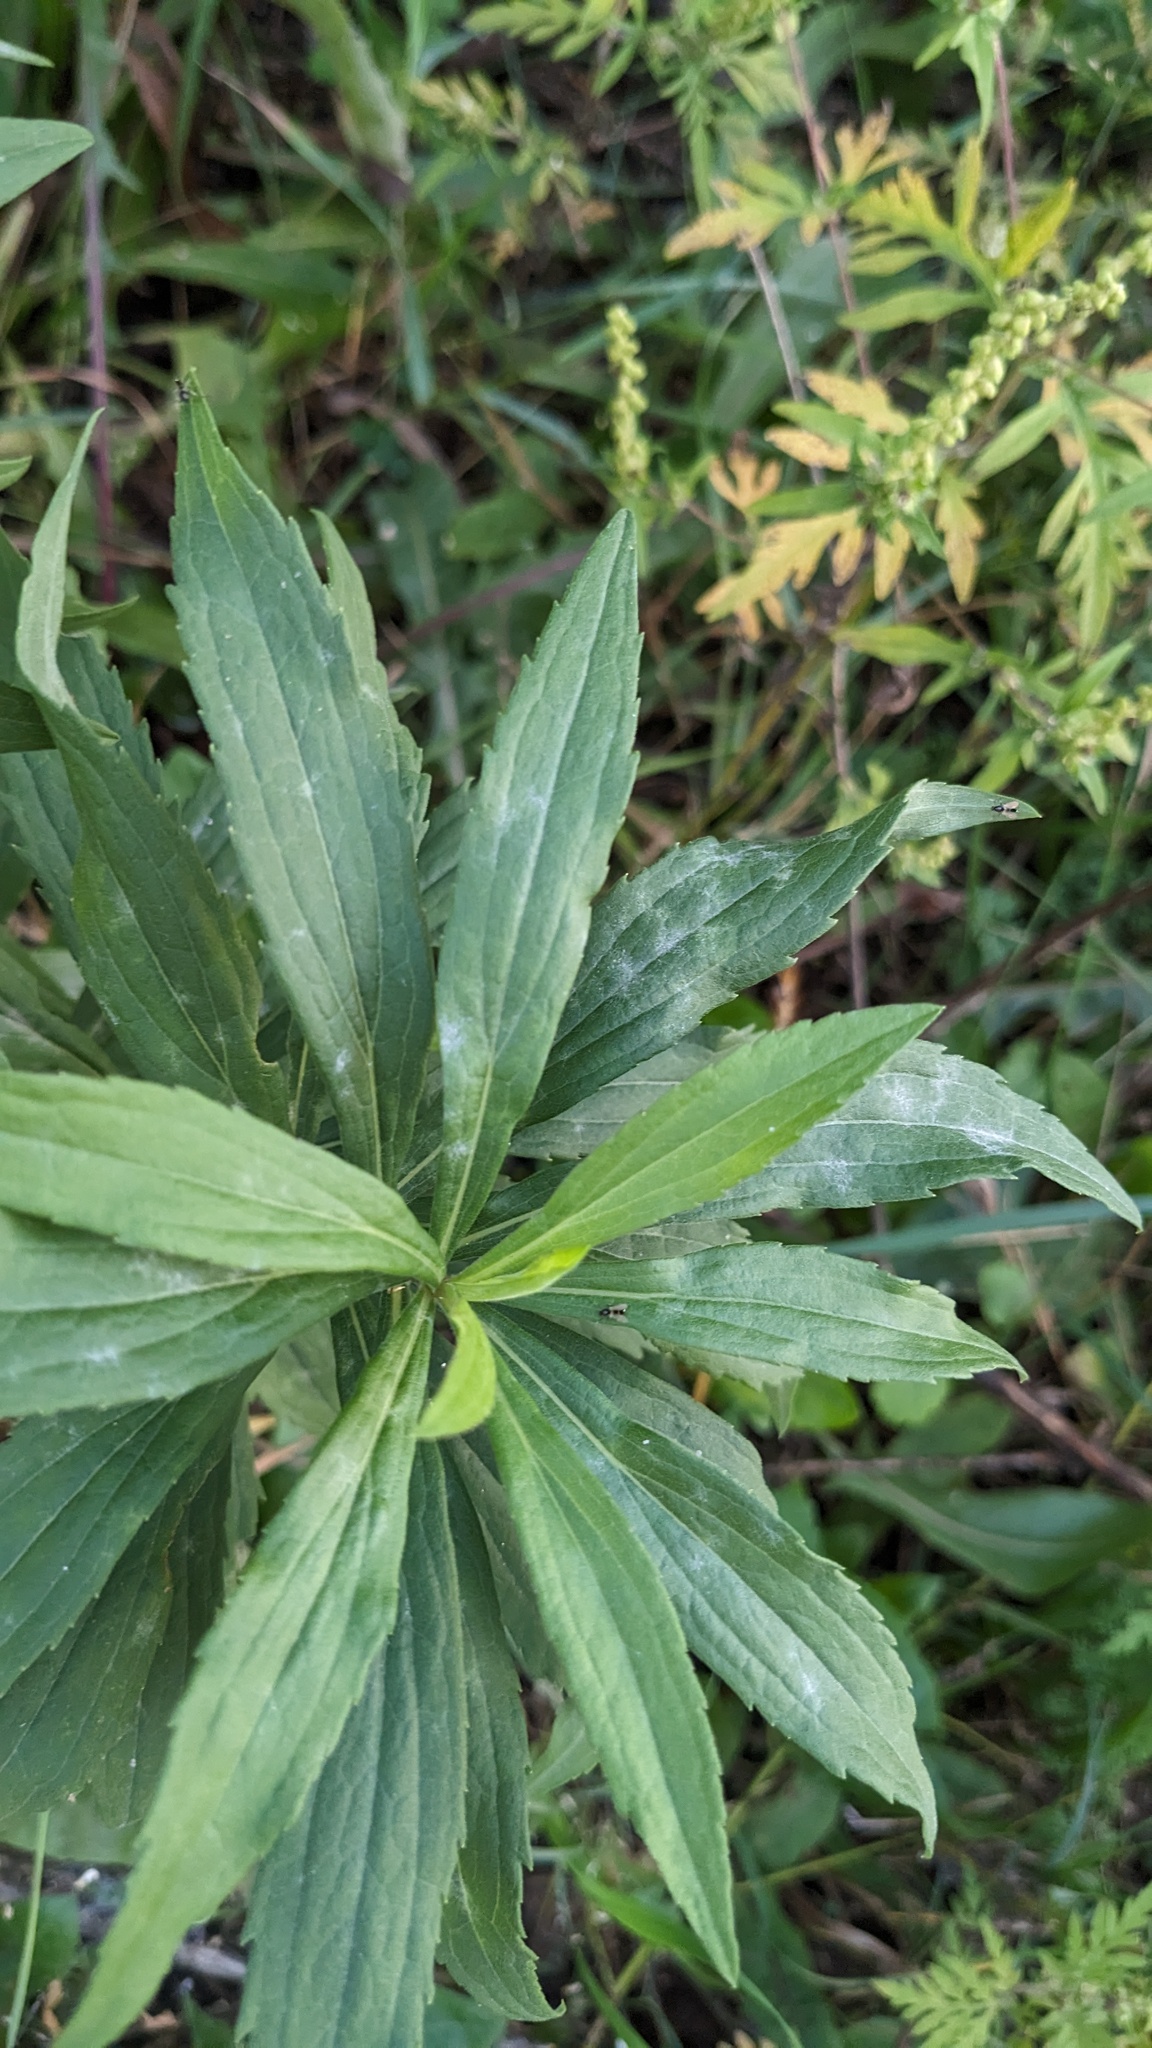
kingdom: Fungi
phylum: Ascomycota
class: Leotiomycetes
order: Helotiales
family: Erysiphaceae
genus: Golovinomyces
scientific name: Golovinomyces asterum
